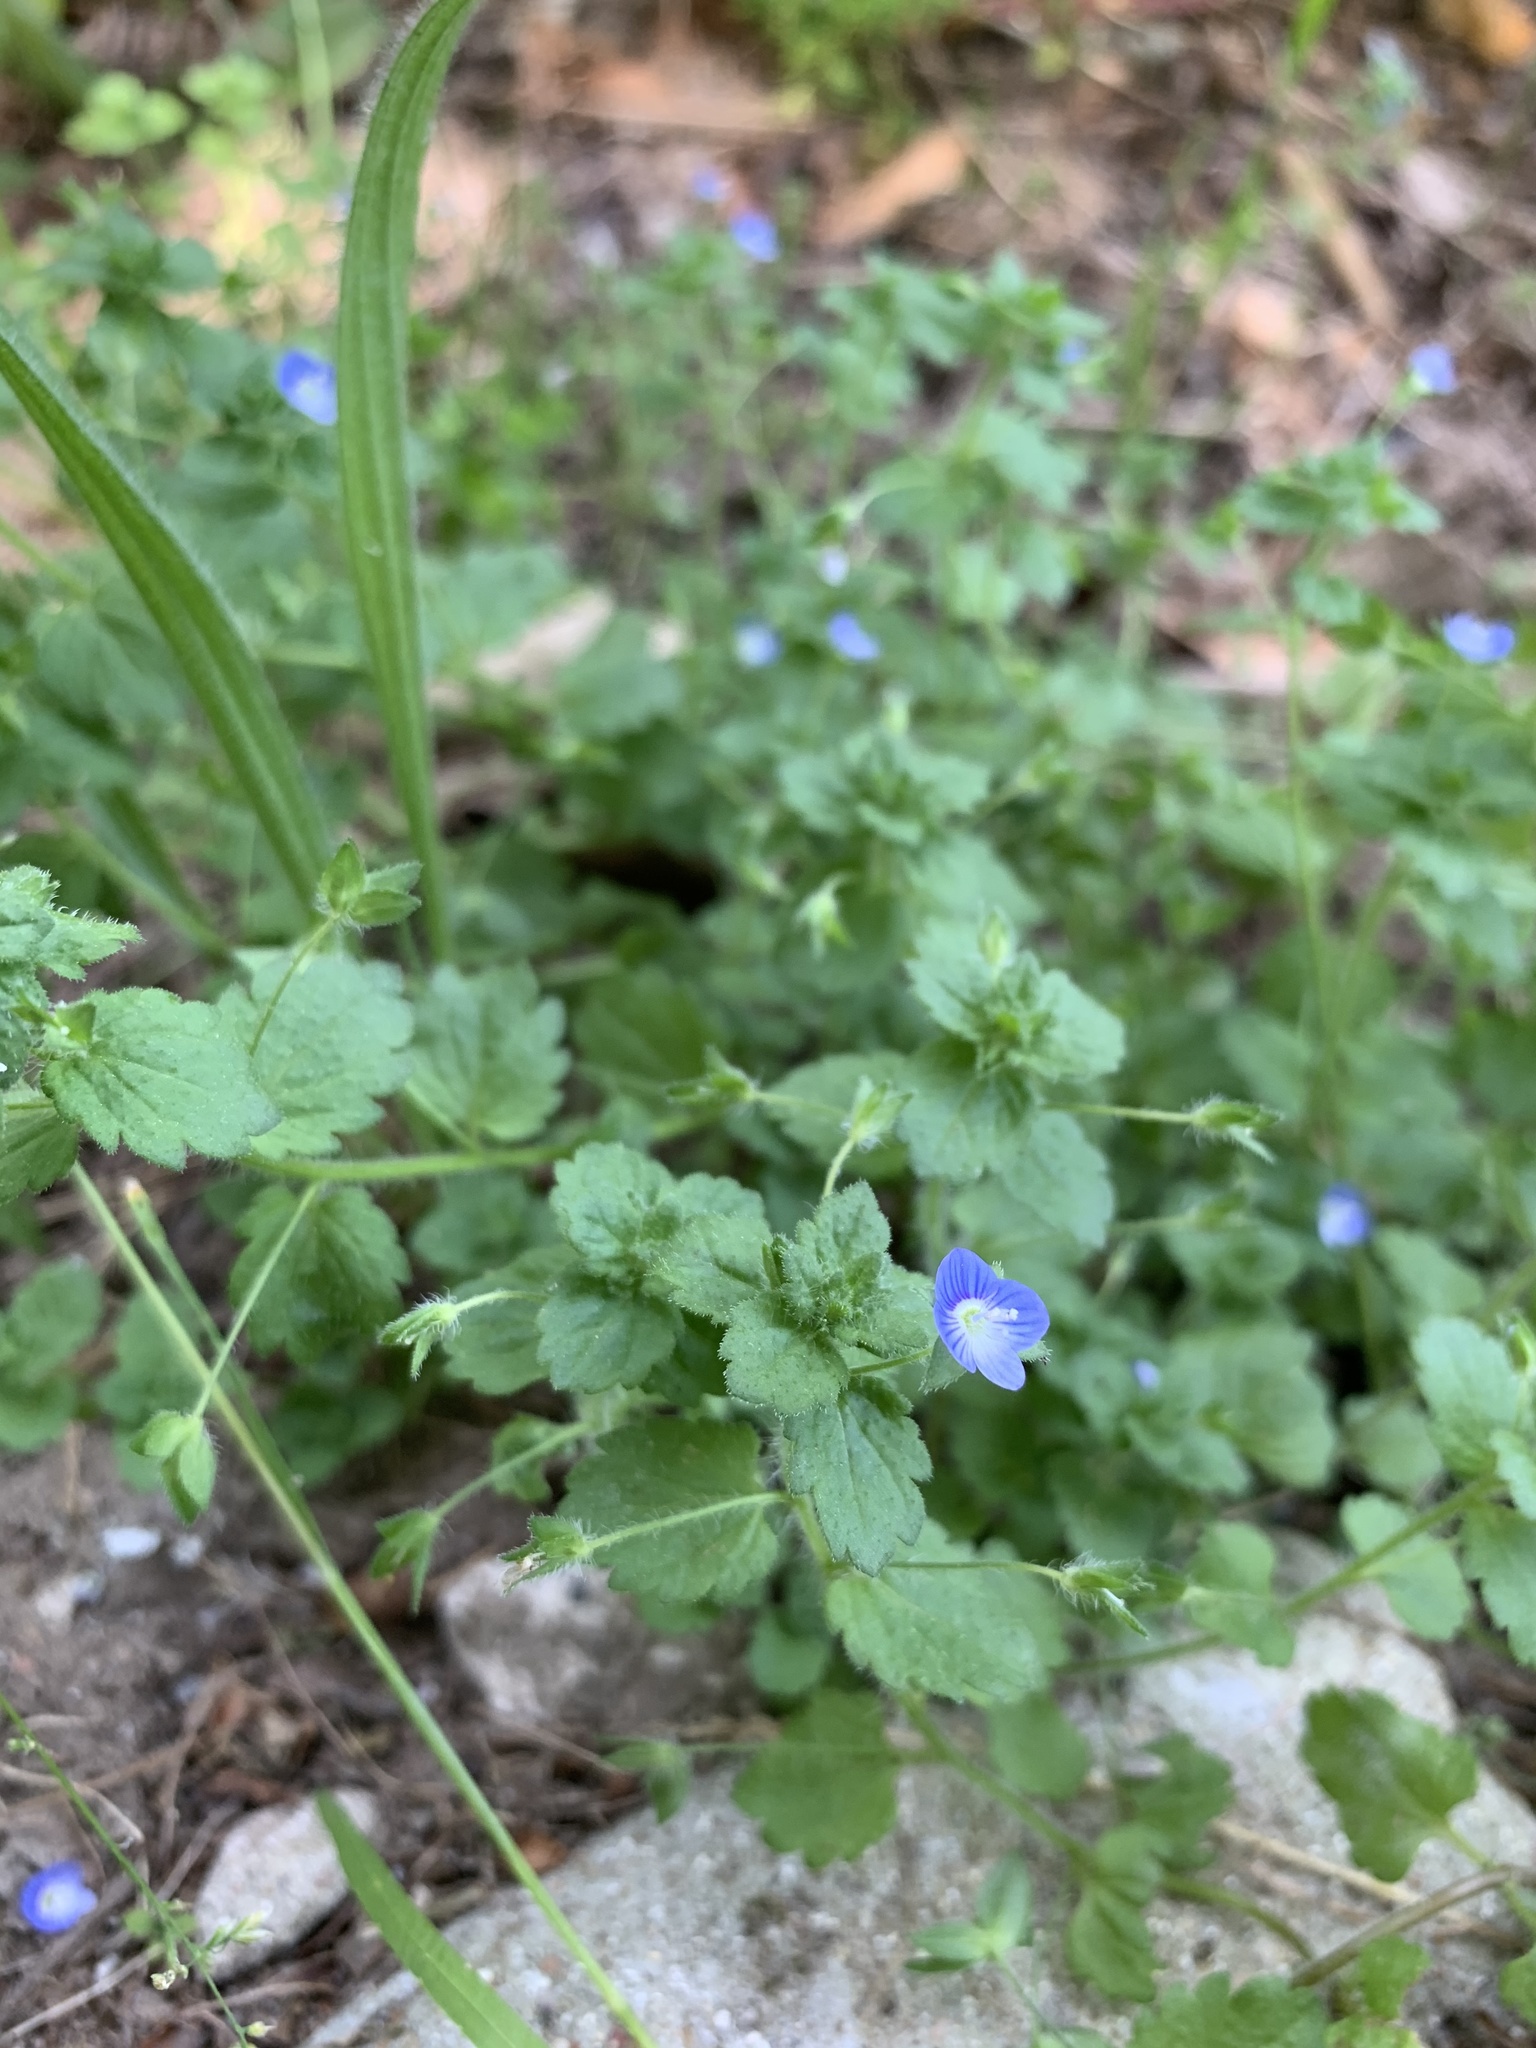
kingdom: Plantae
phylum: Tracheophyta
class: Magnoliopsida
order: Lamiales
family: Plantaginaceae
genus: Veronica
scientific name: Veronica persica
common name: Common field-speedwell
